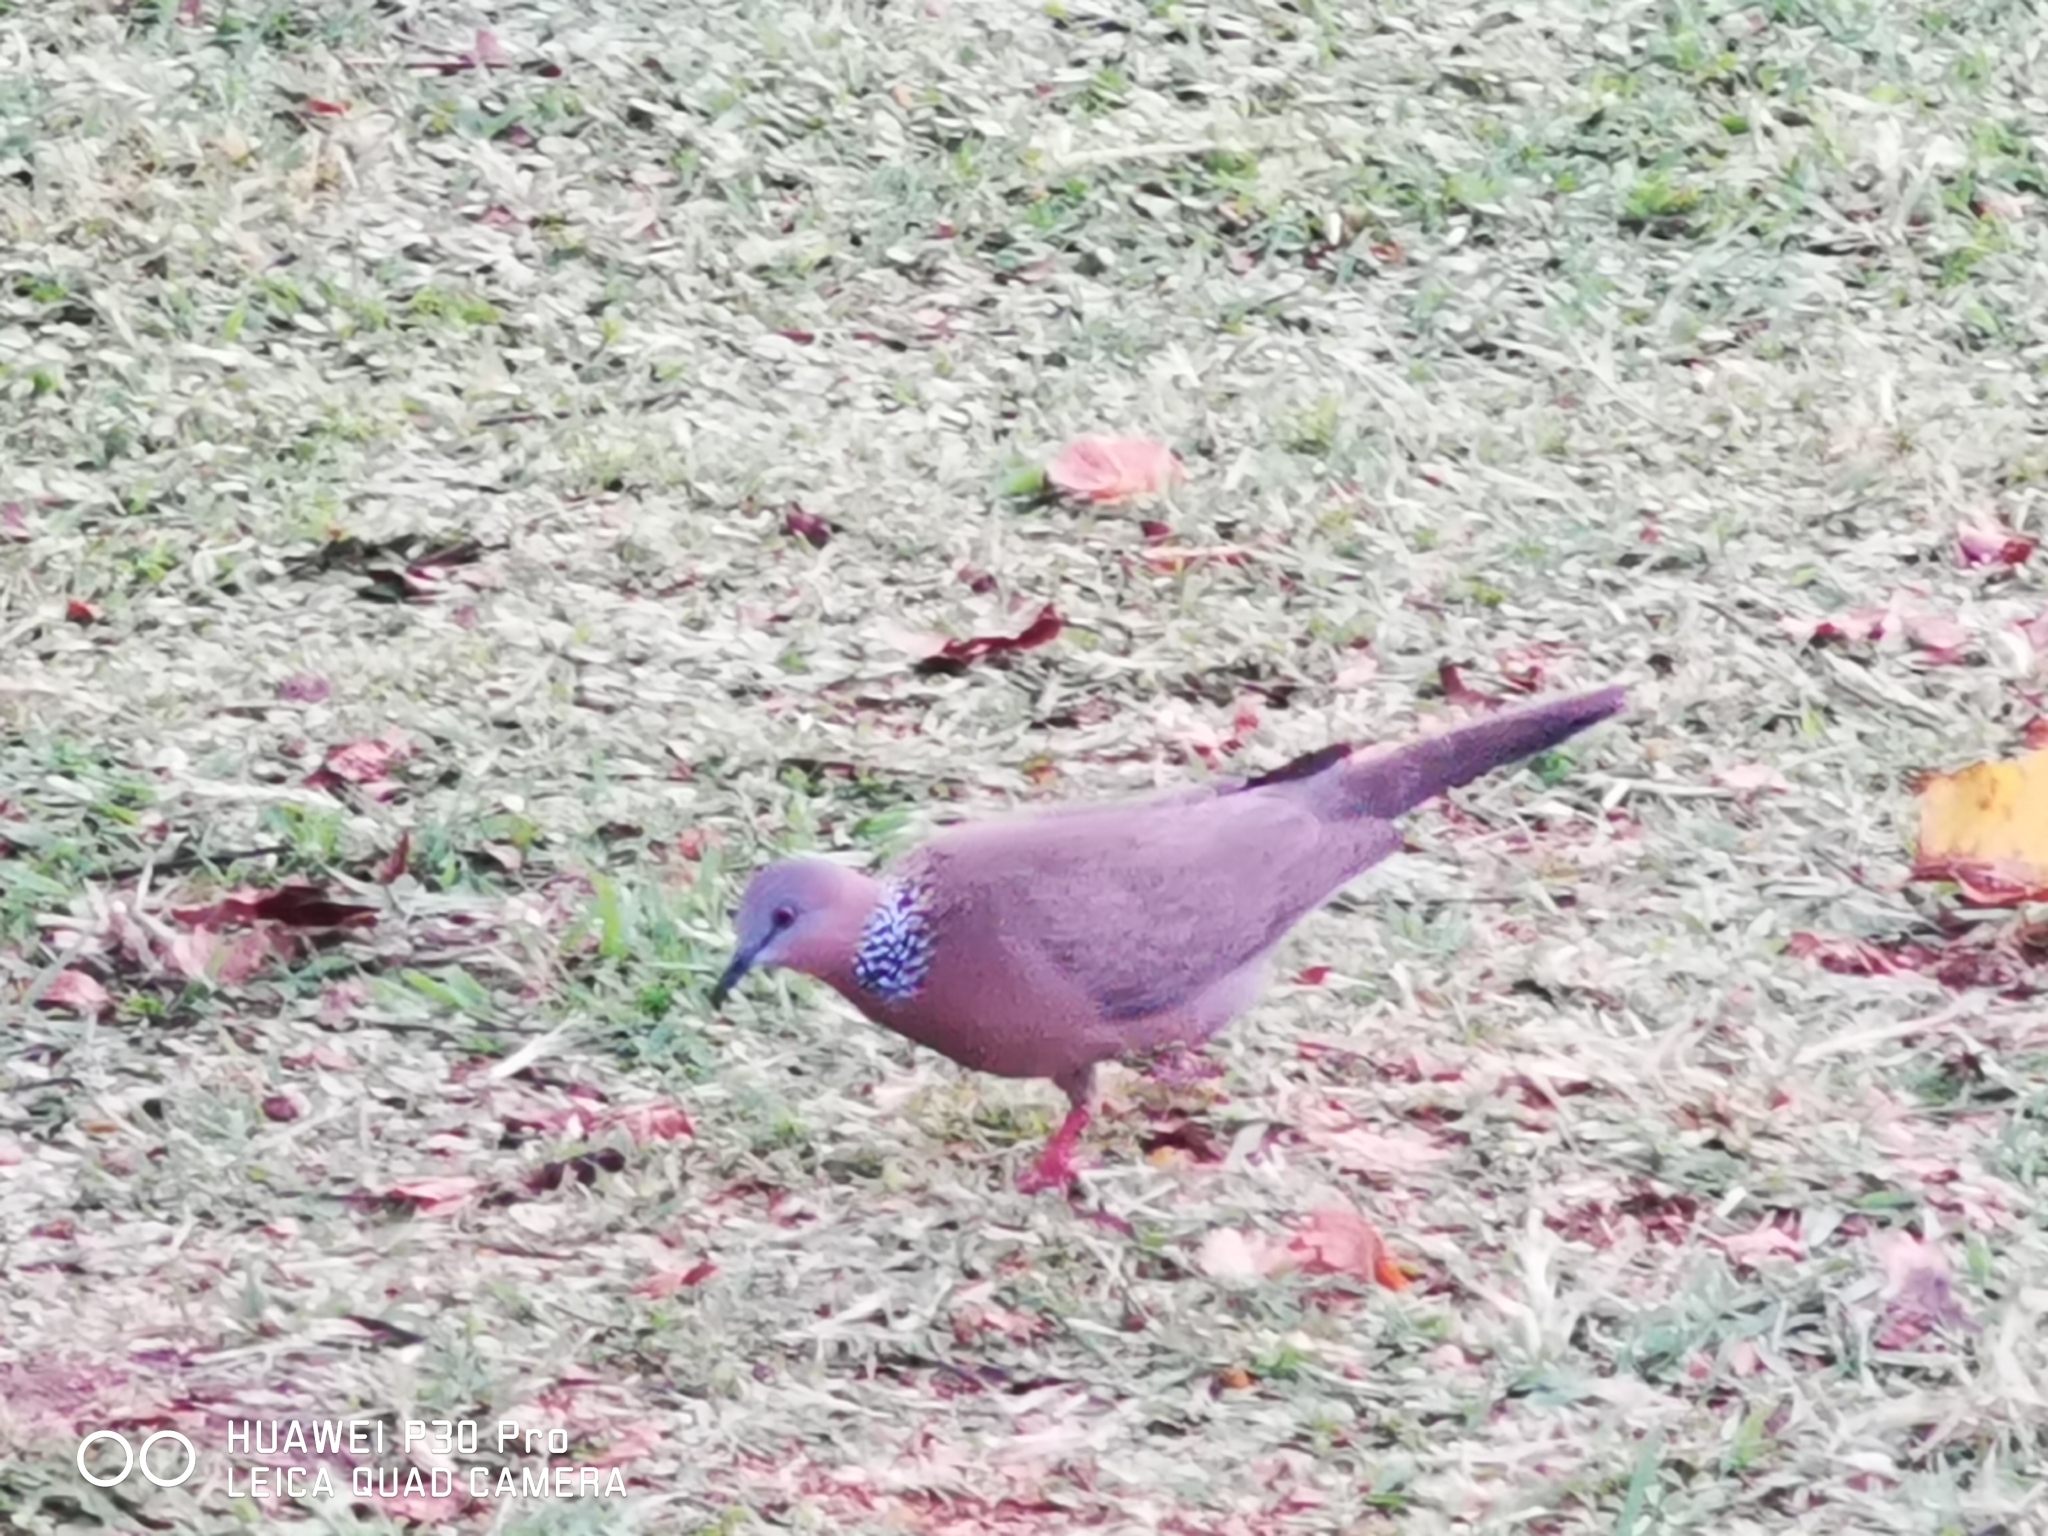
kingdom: Animalia
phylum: Chordata
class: Aves
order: Columbiformes
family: Columbidae
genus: Spilopelia
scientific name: Spilopelia chinensis
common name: Spotted dove
